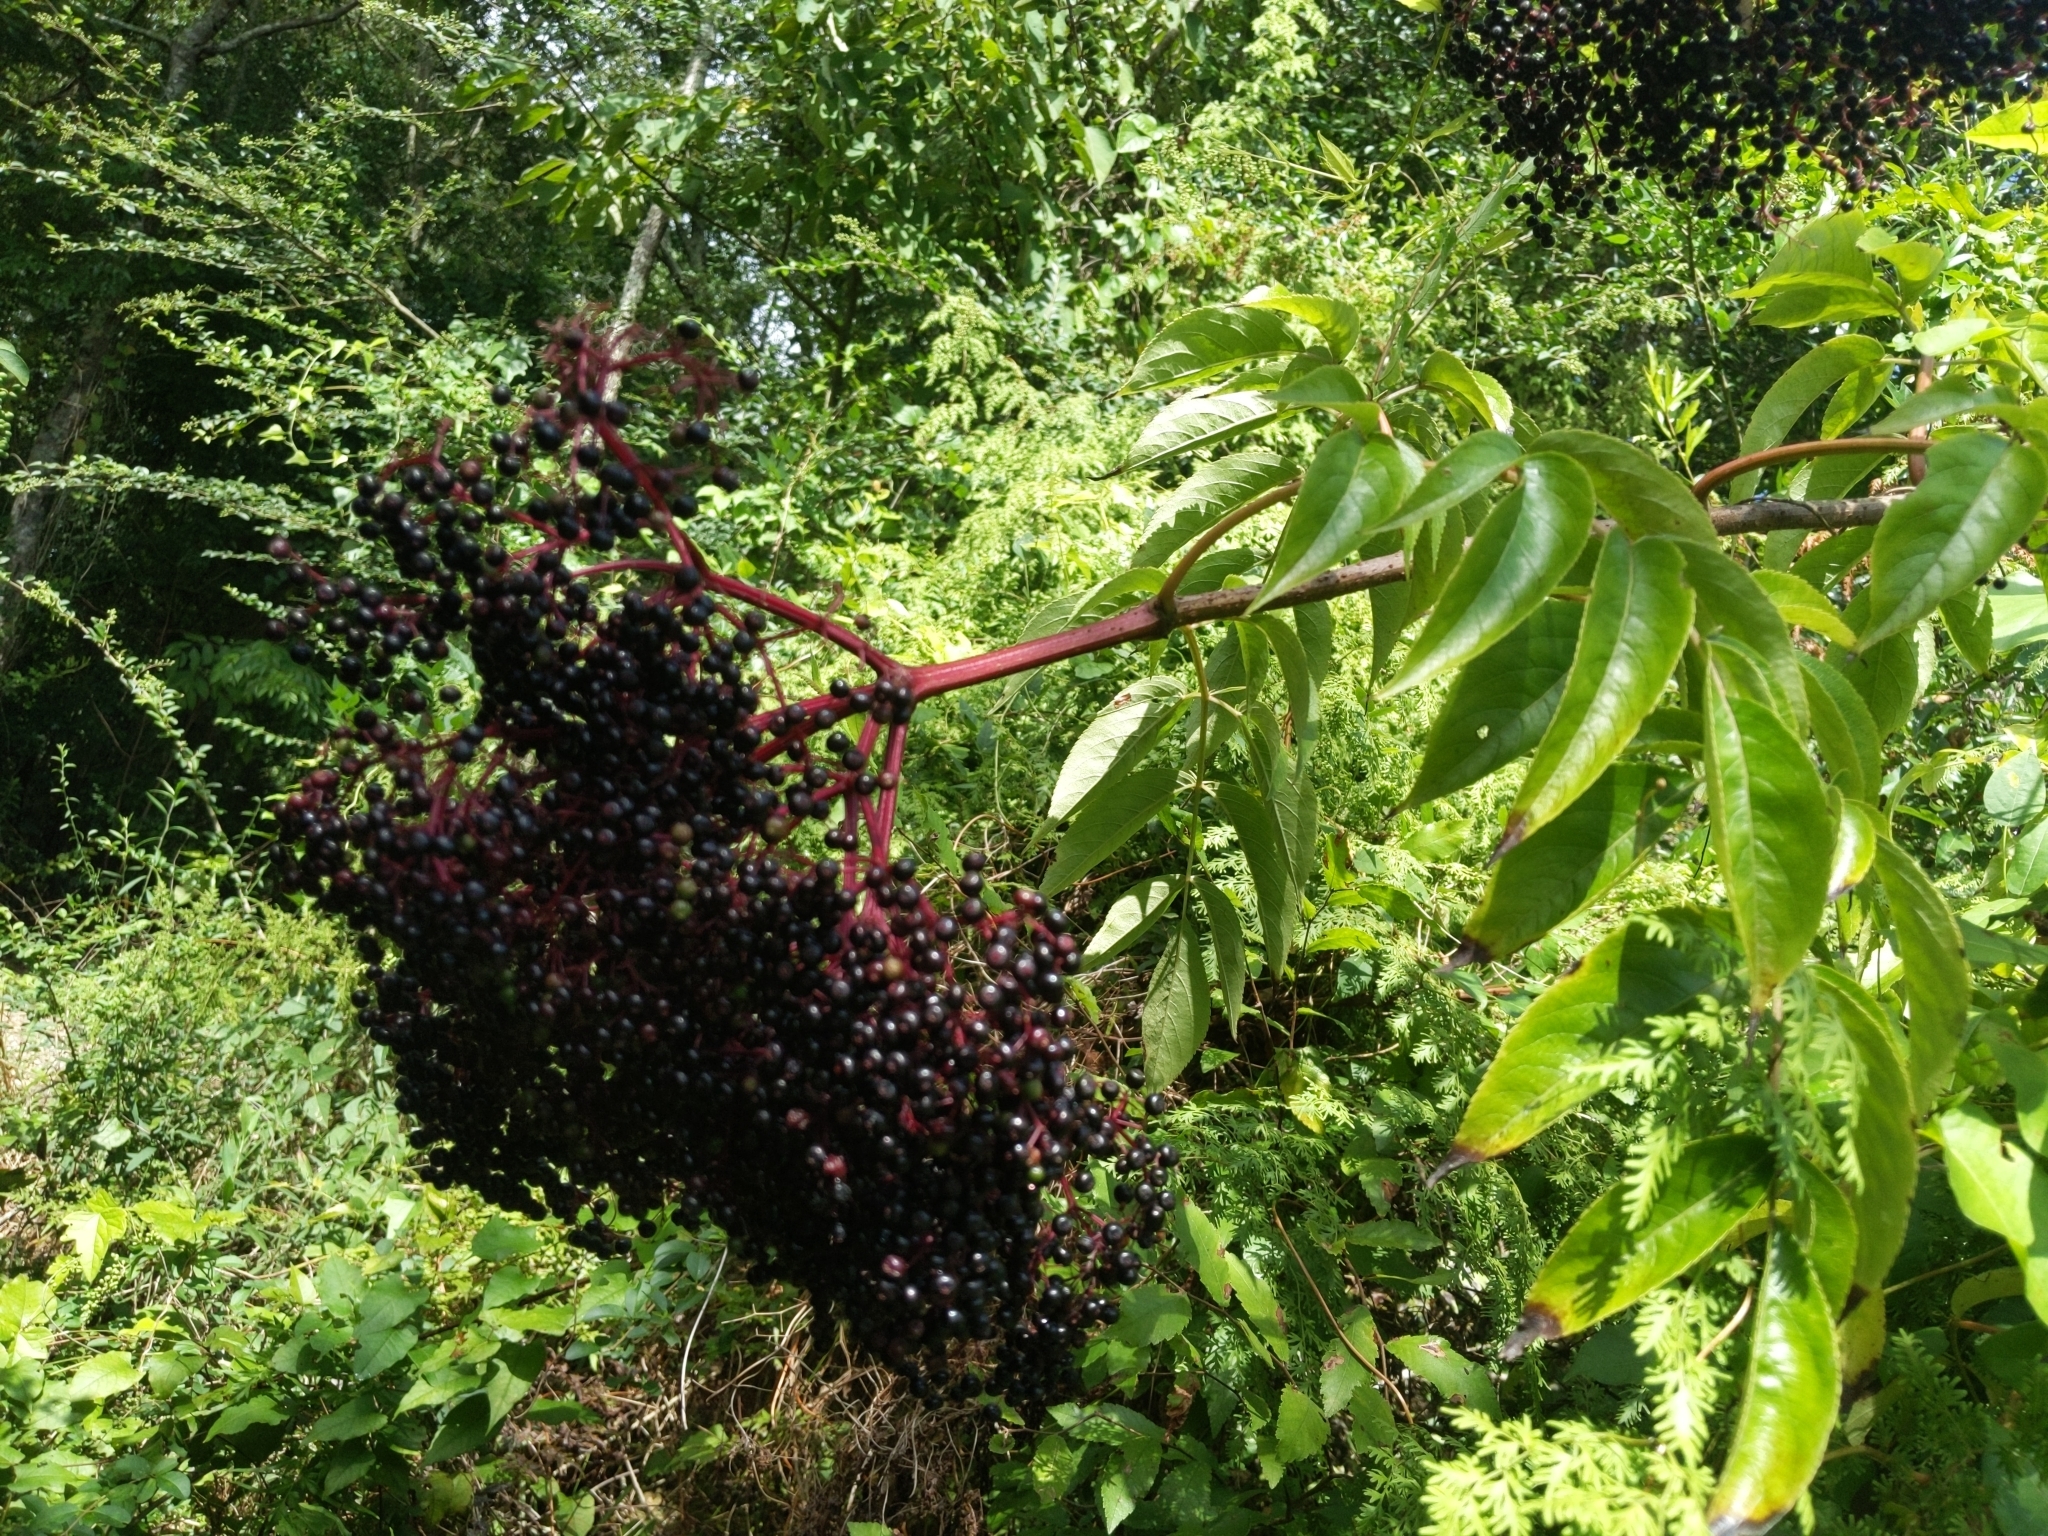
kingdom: Plantae
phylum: Tracheophyta
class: Magnoliopsida
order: Dipsacales
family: Viburnaceae
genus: Sambucus
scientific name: Sambucus canadensis
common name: American elder
